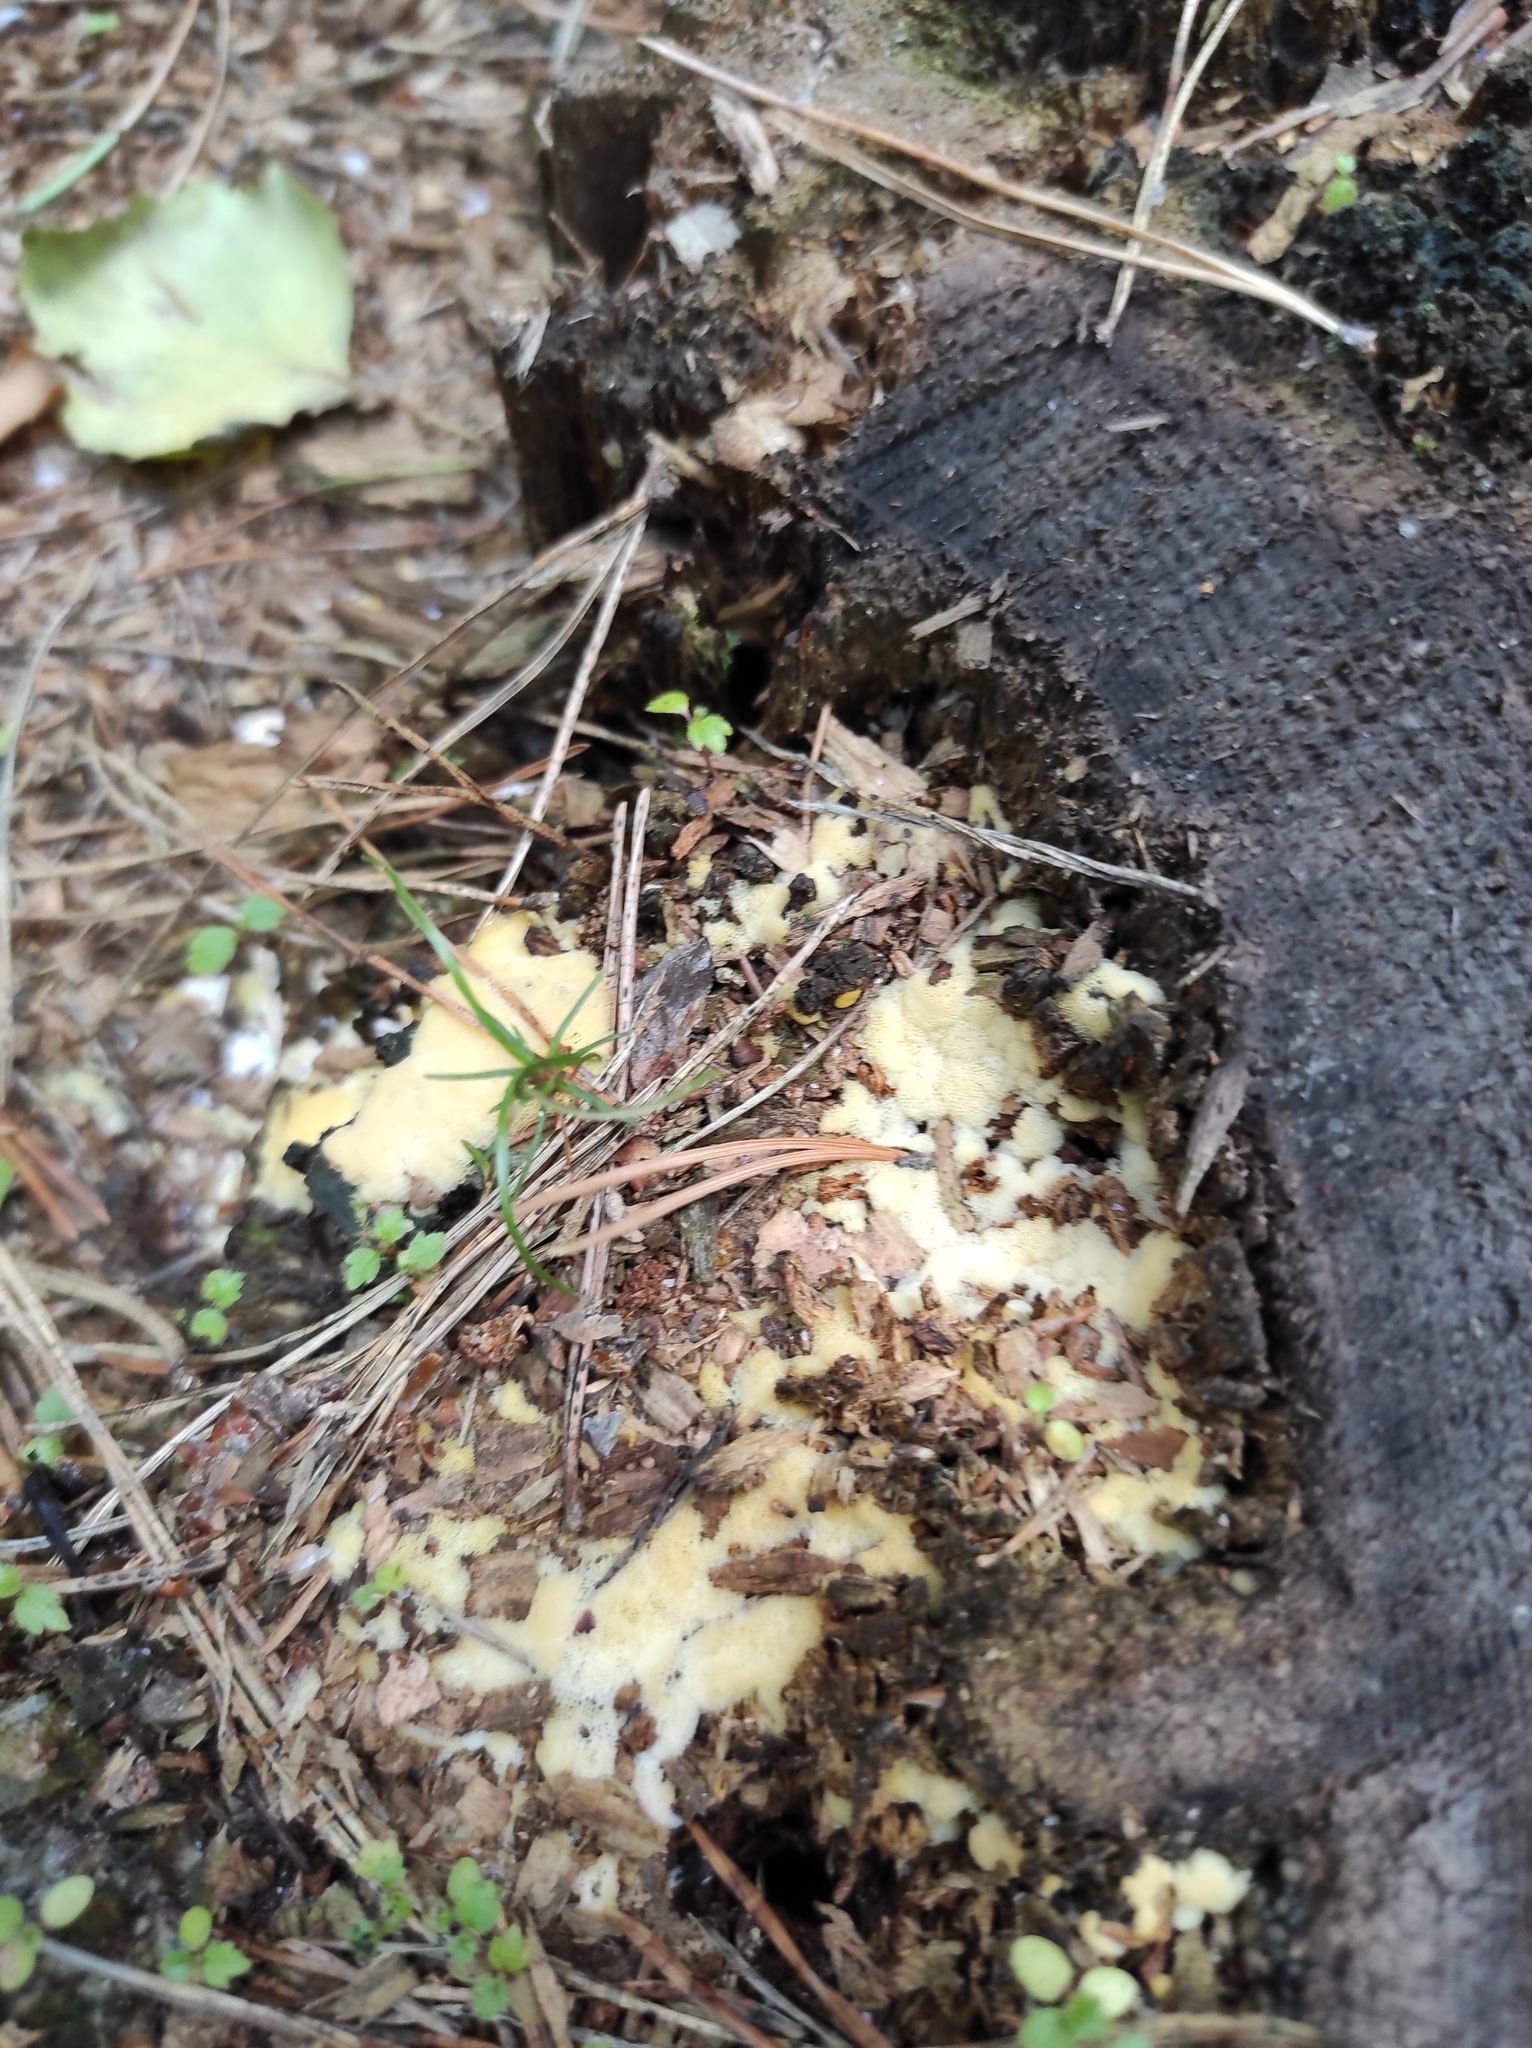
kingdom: Plantae
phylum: Tracheophyta
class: Pinopsida
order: Pinales
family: Pinaceae
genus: Pinus
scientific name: Pinus sylvestris
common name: Scots pine
